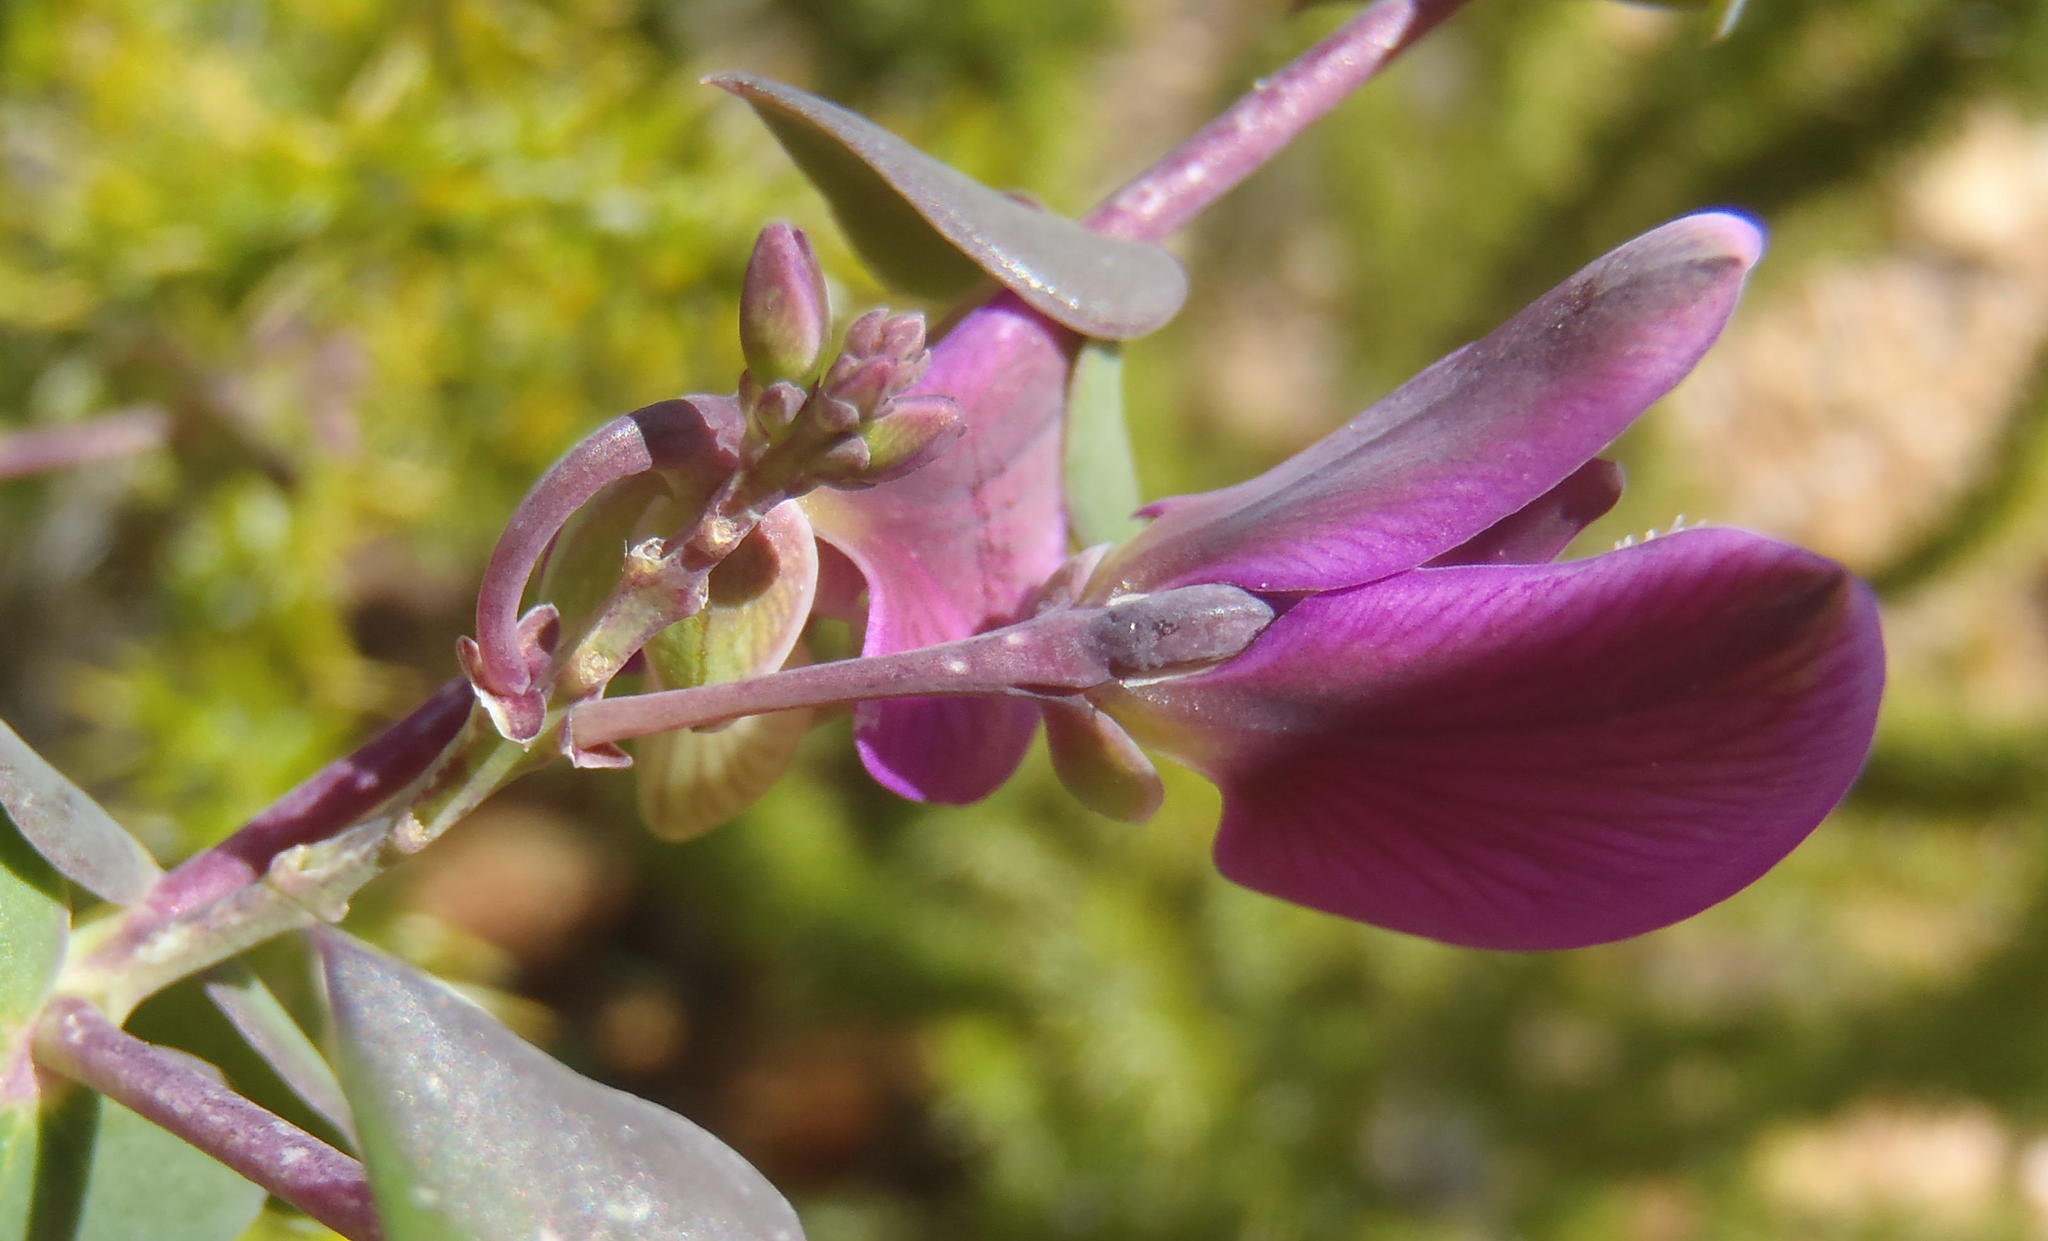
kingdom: Plantae
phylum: Tracheophyta
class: Magnoliopsida
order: Fabales
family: Polygalaceae
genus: Polygala
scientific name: Polygala fruticosa
